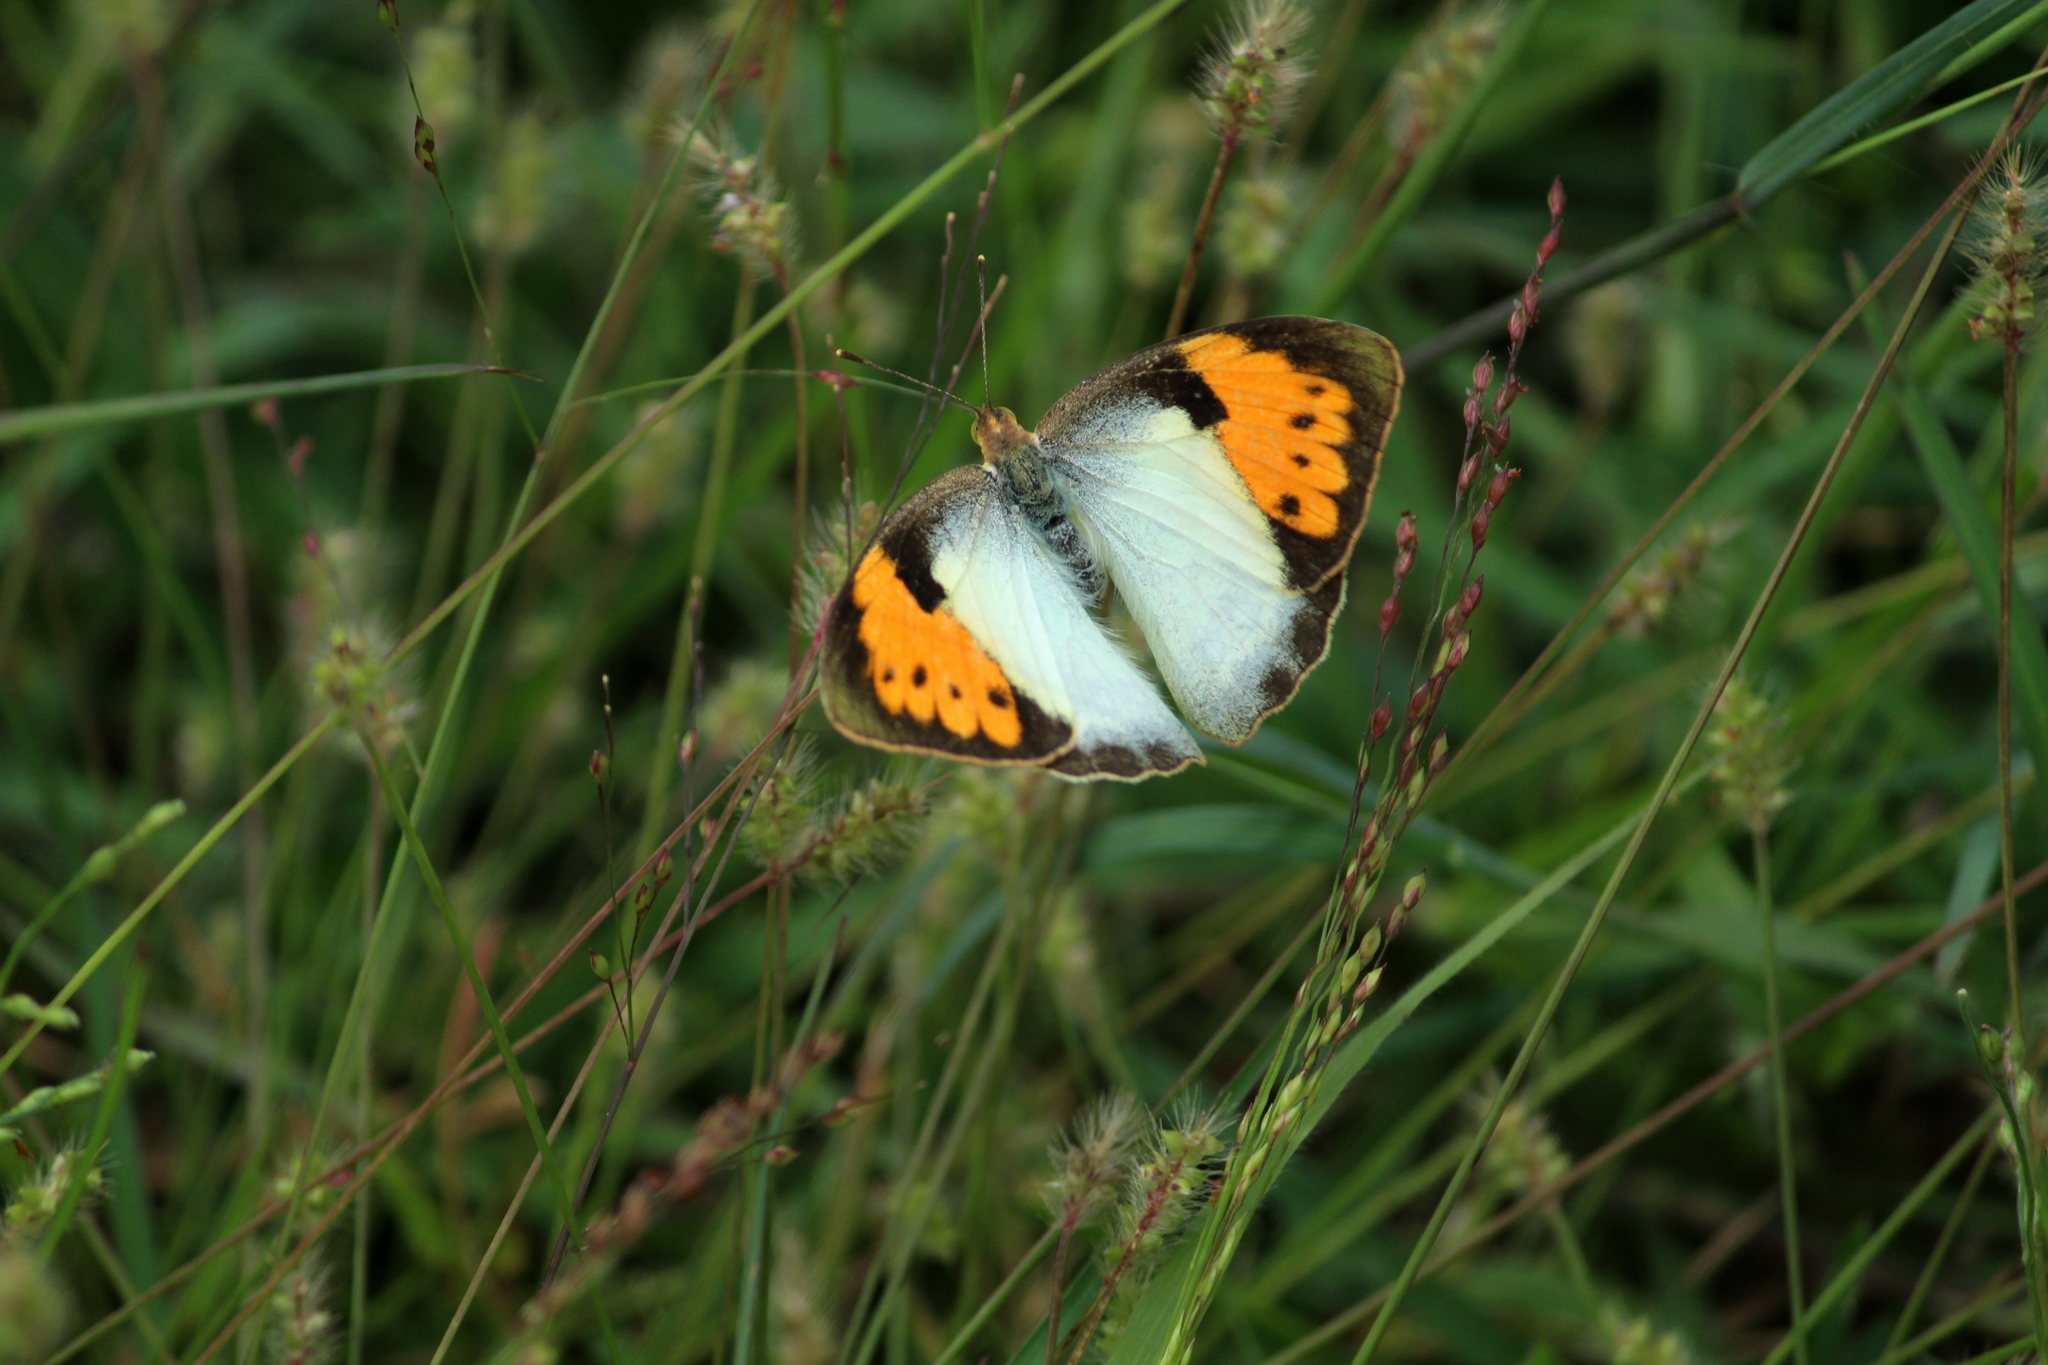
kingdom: Animalia
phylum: Arthropoda
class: Insecta
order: Lepidoptera
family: Pieridae
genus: Ixias
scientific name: Ixias marianne
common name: White orange tip
